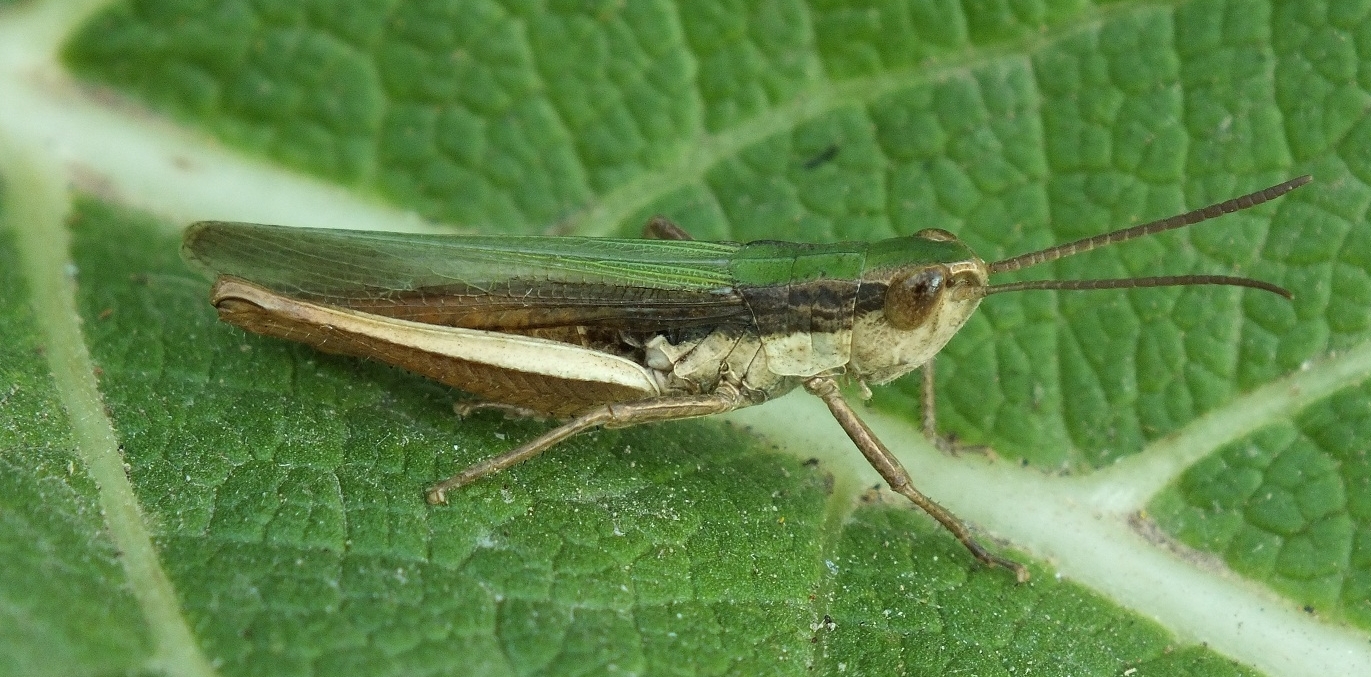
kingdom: Animalia
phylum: Arthropoda
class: Insecta
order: Orthoptera
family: Acrididae
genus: Chorthippus
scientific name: Chorthippus dichrous
